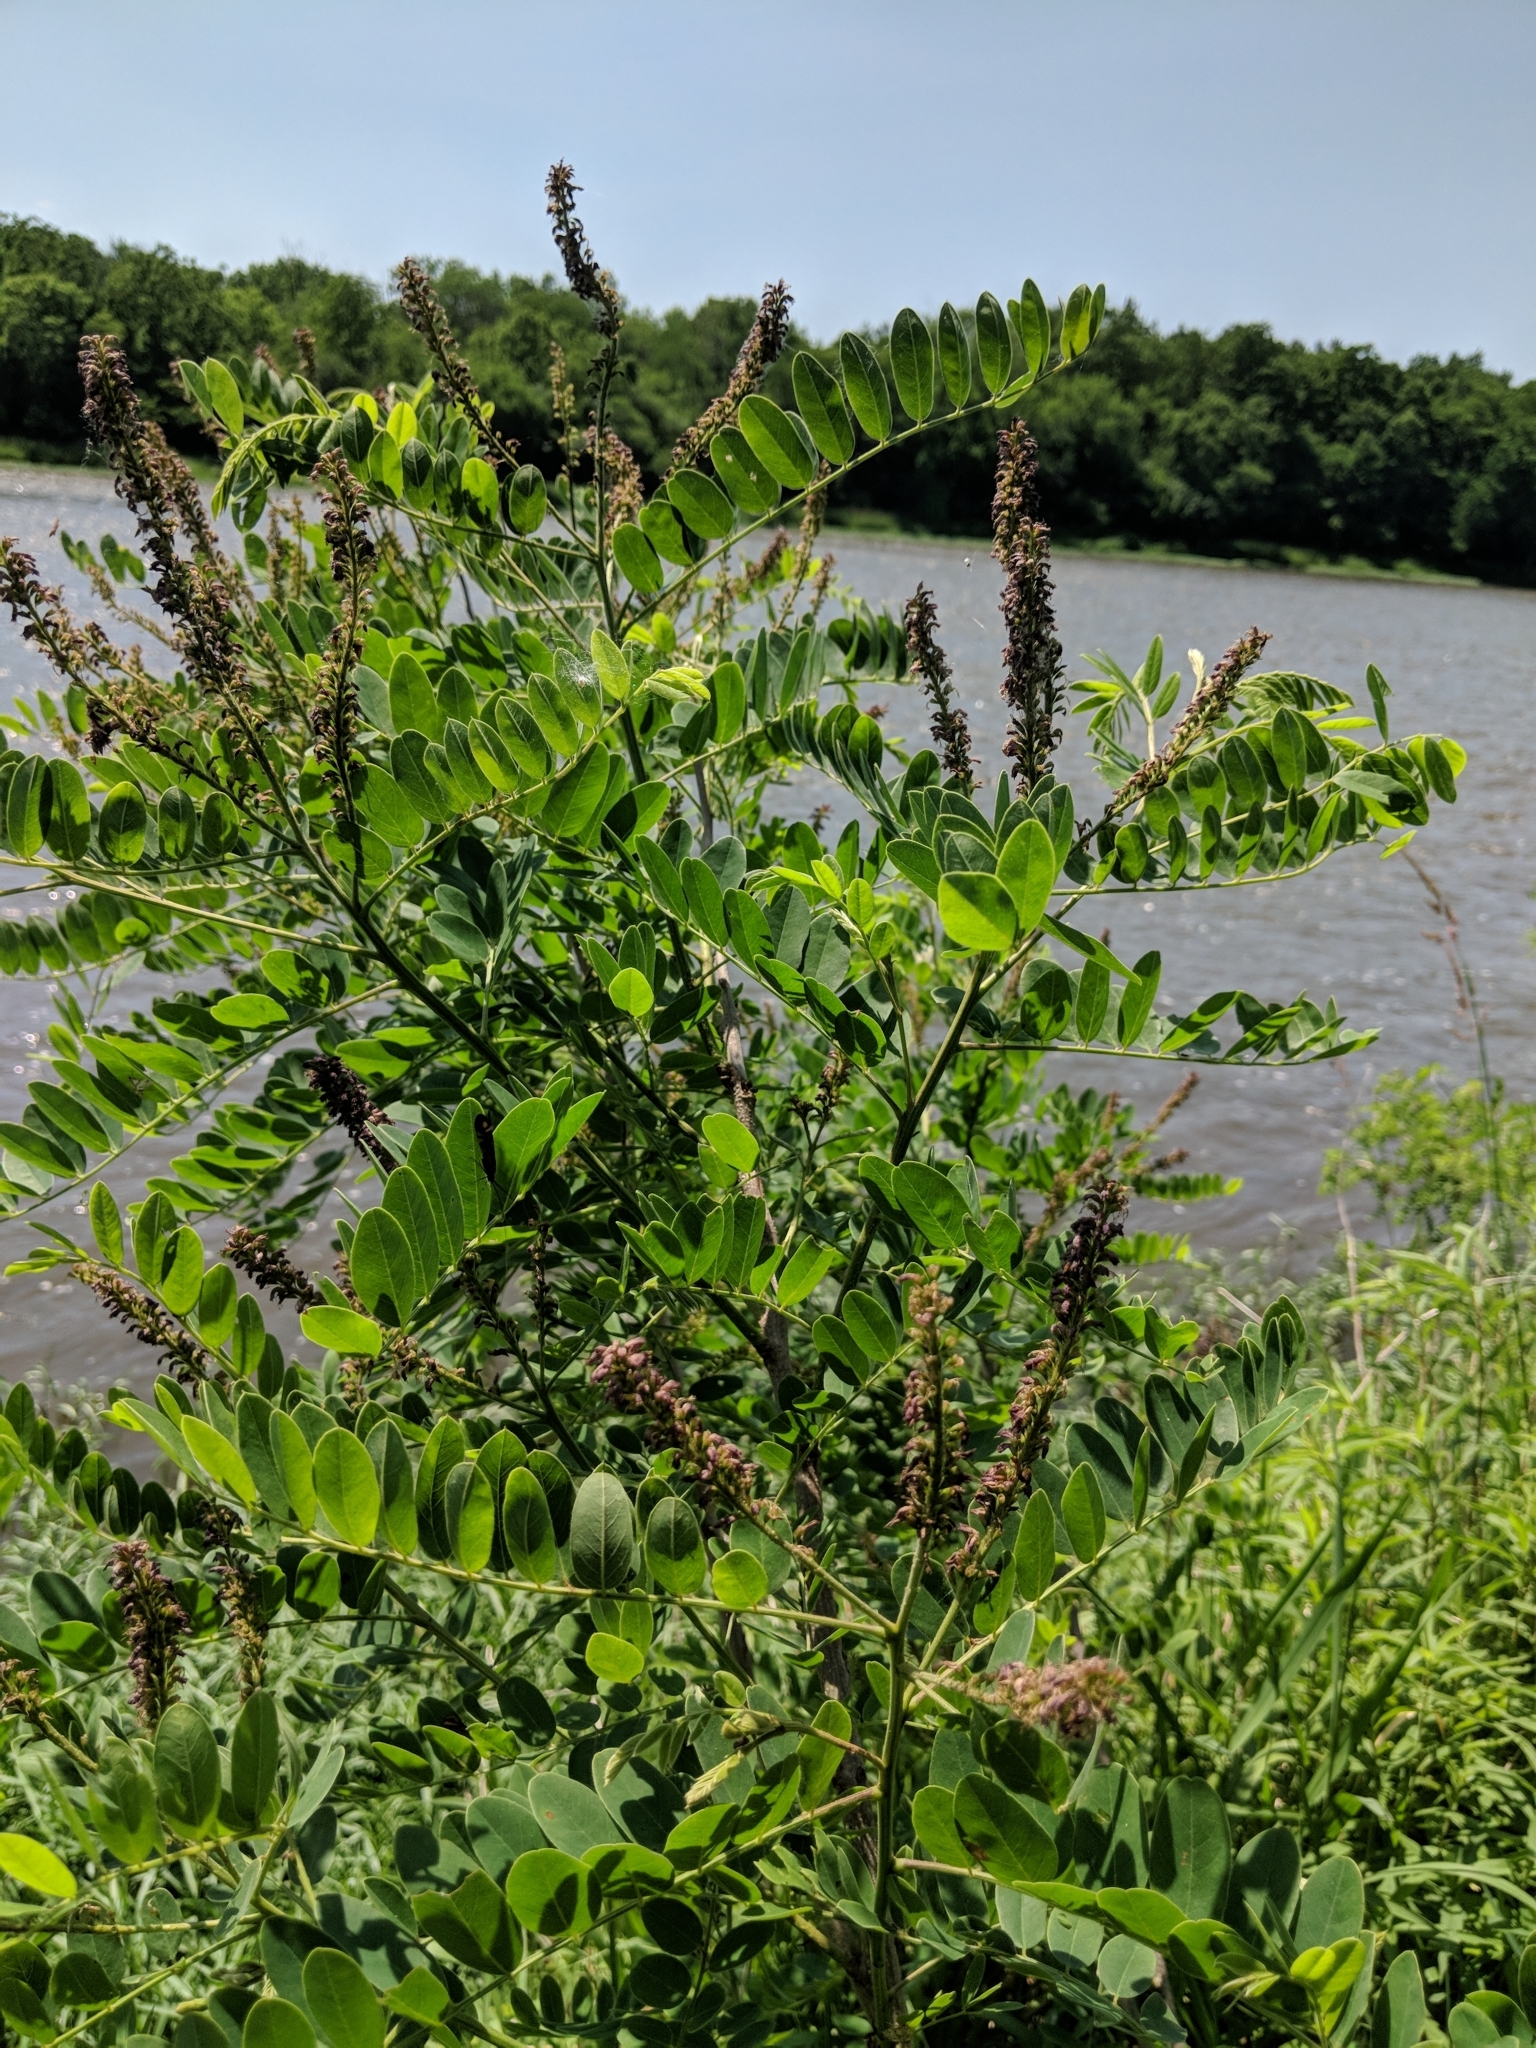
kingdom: Plantae
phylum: Tracheophyta
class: Magnoliopsida
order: Fabales
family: Fabaceae
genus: Amorpha
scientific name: Amorpha fruticosa
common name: False indigo
